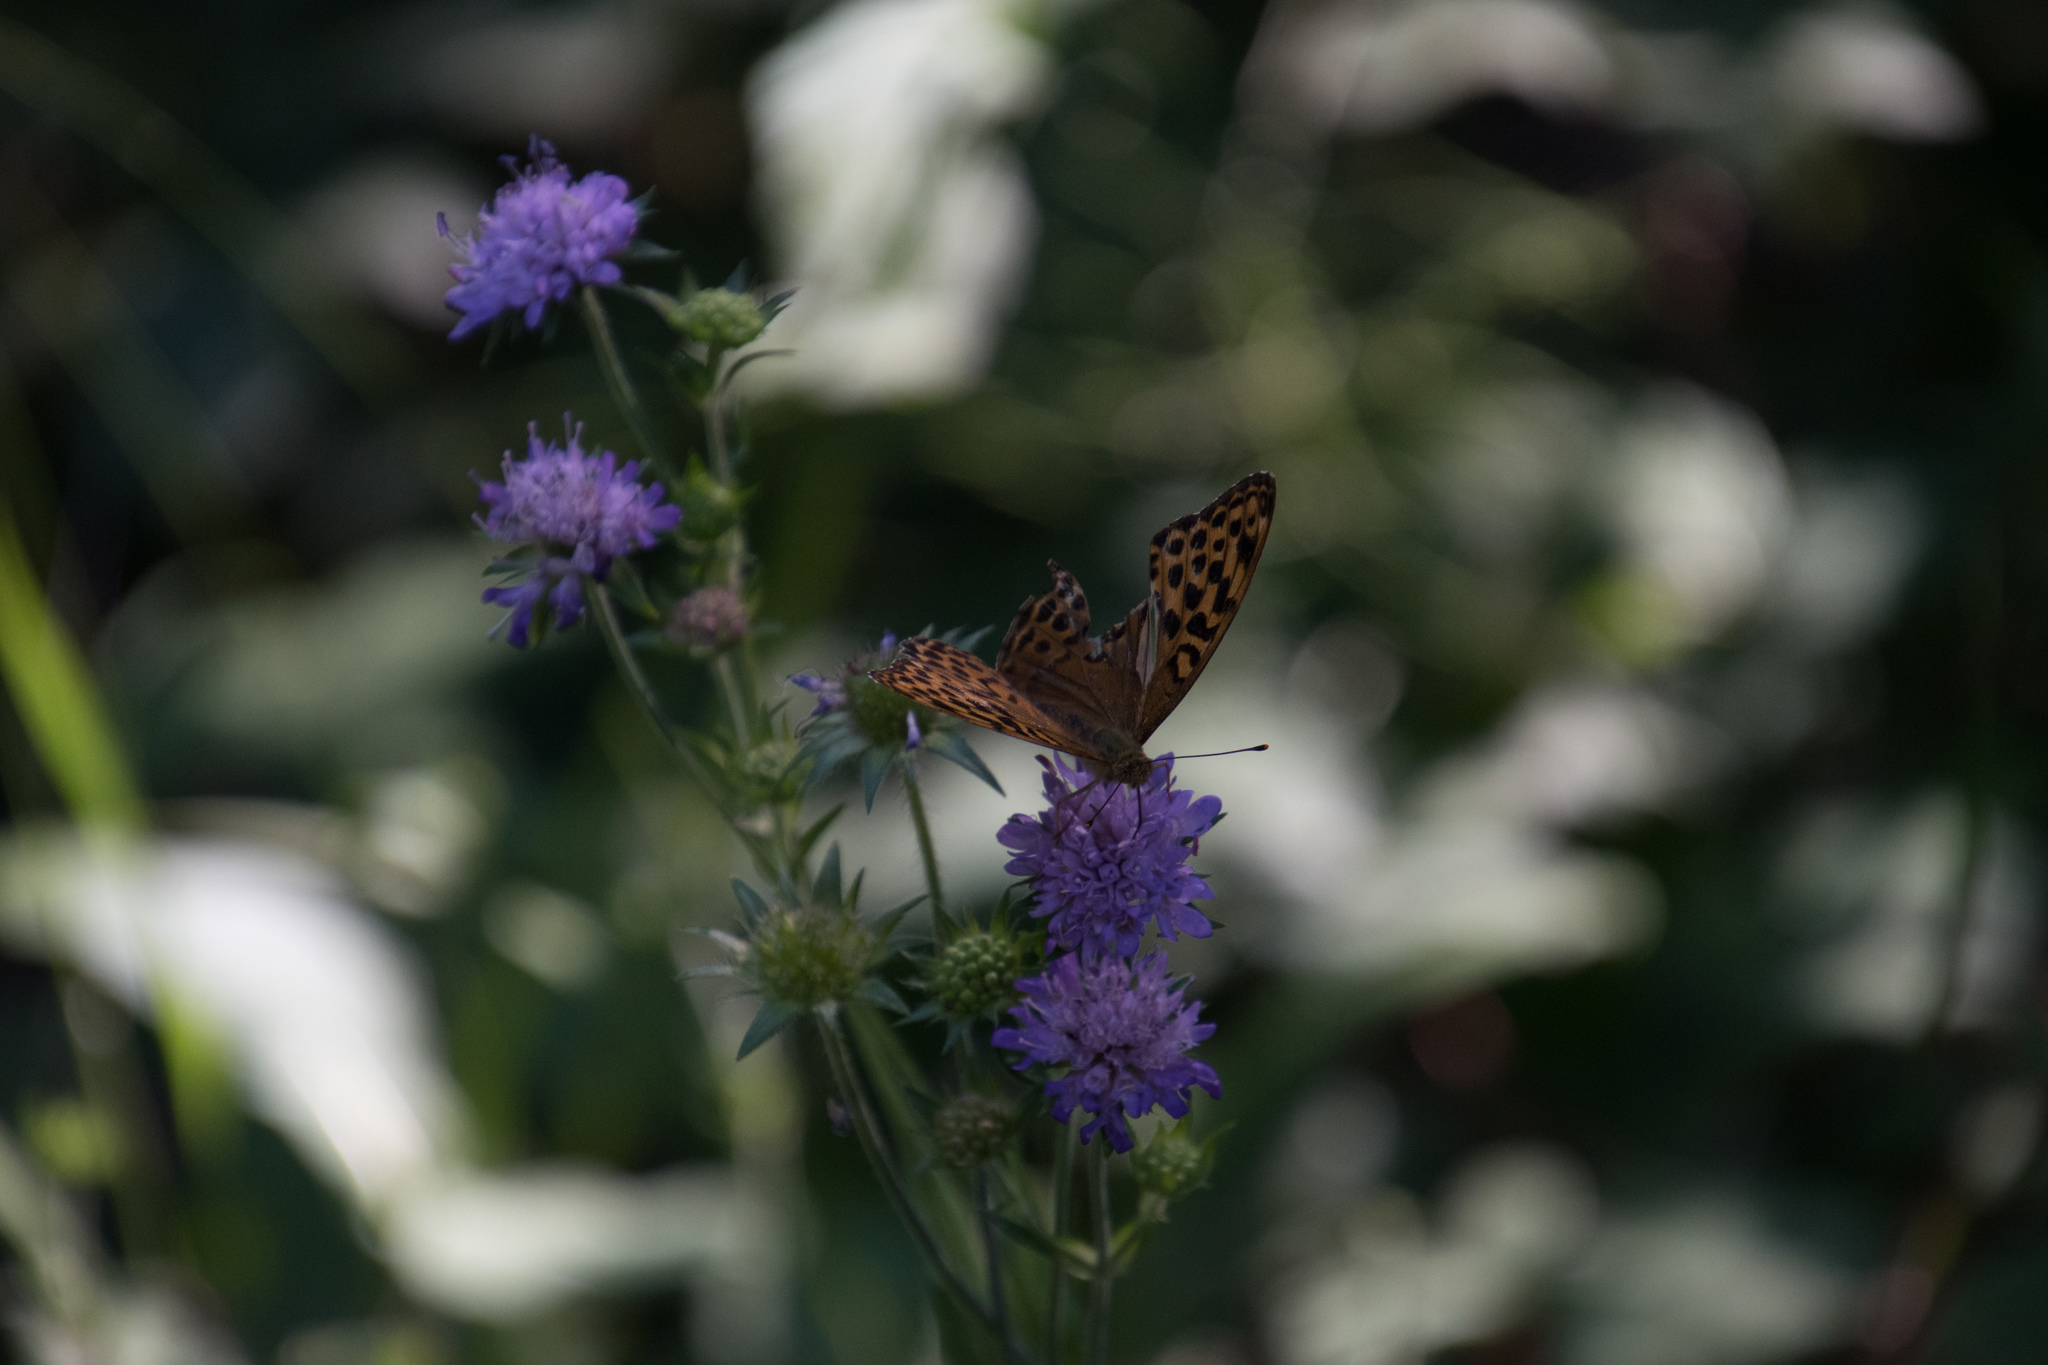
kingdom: Animalia
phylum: Arthropoda
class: Insecta
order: Lepidoptera
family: Nymphalidae
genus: Argynnis
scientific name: Argynnis paphia
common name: Silver-washed fritillary
